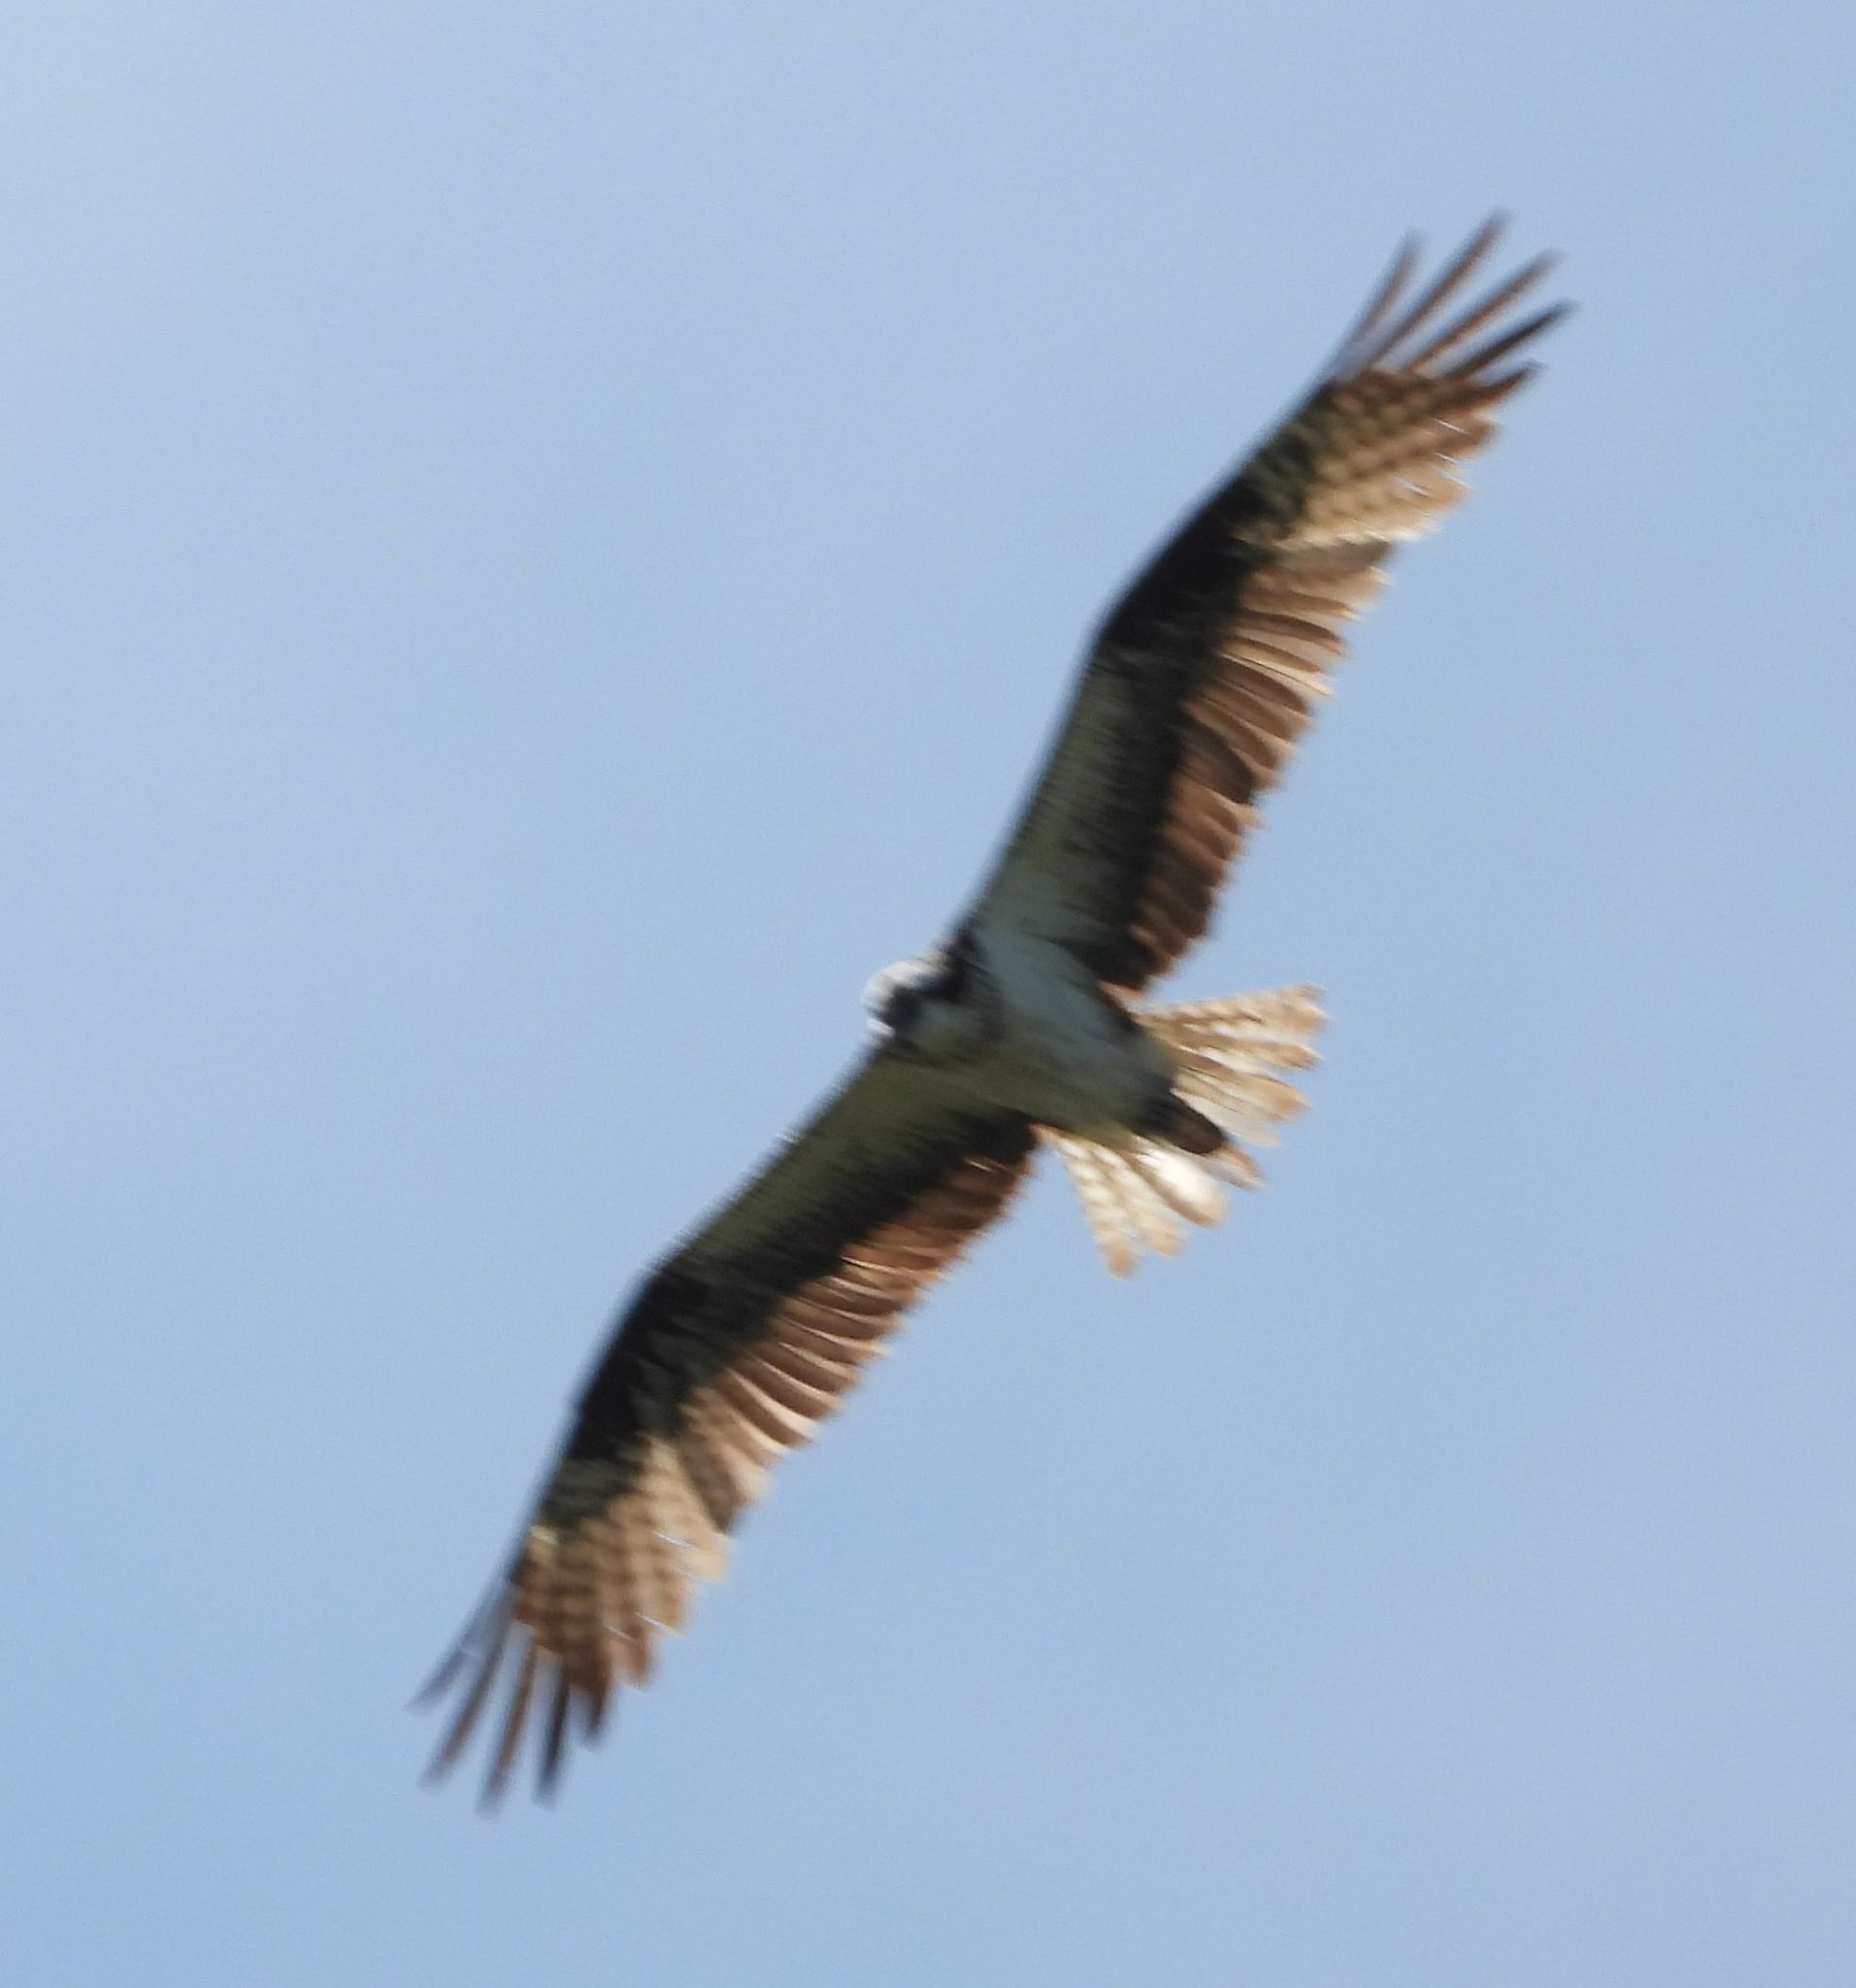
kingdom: Animalia
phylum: Chordata
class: Aves
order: Accipitriformes
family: Pandionidae
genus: Pandion
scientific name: Pandion haliaetus
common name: Osprey
